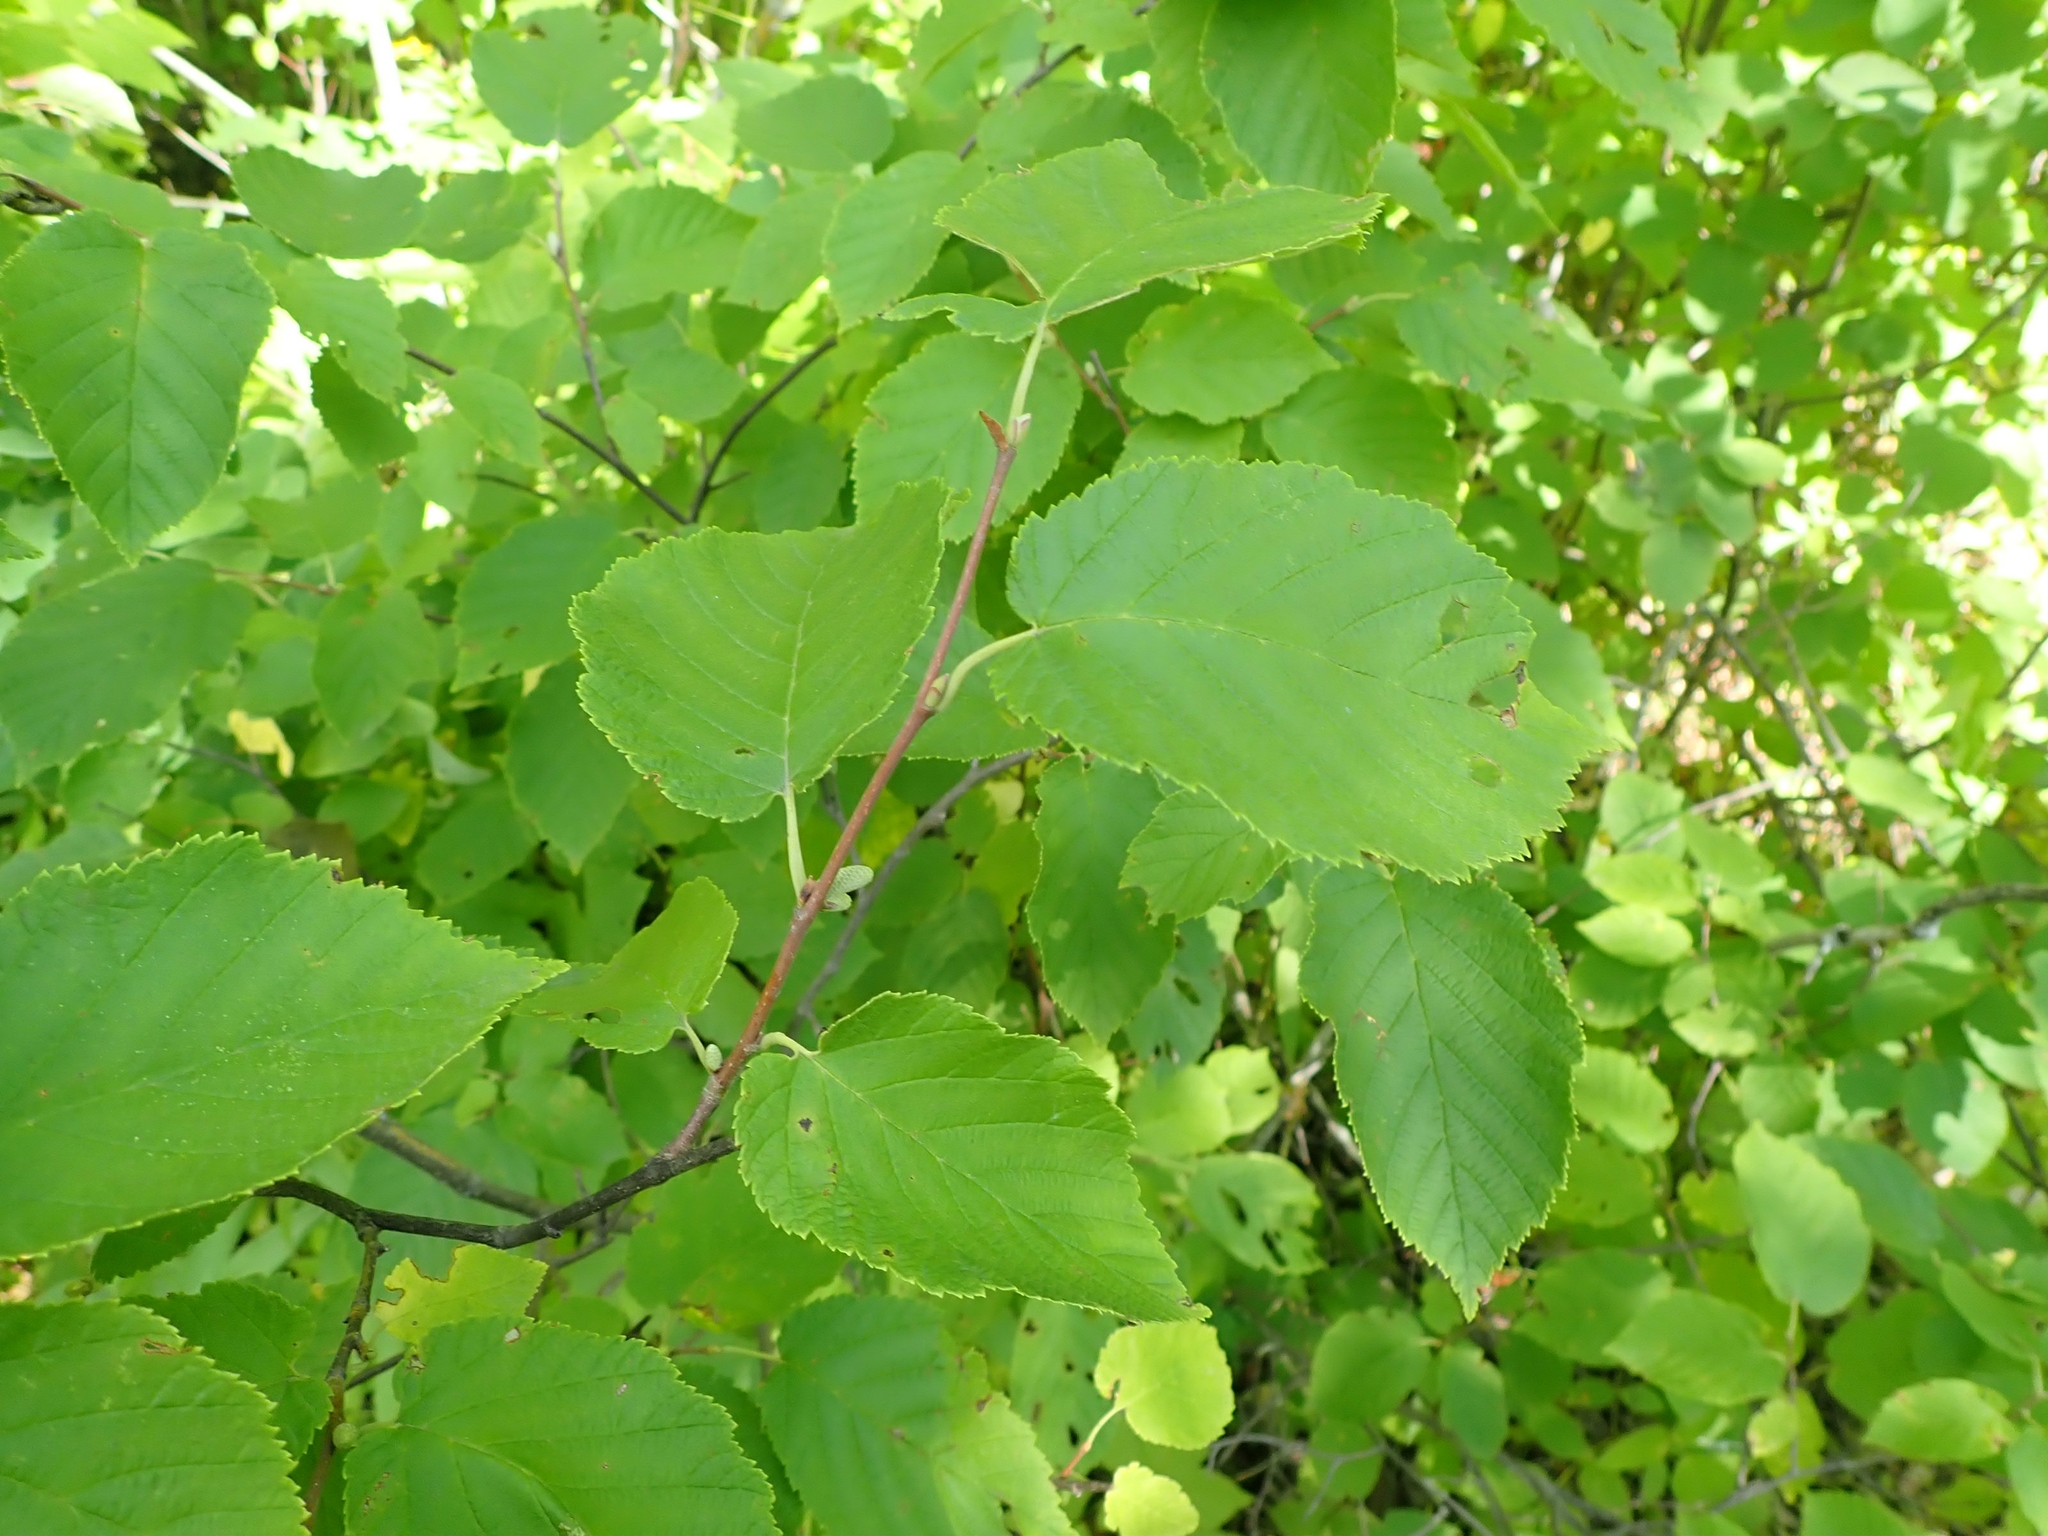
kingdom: Plantae
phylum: Tracheophyta
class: Magnoliopsida
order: Fagales
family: Betulaceae
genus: Corylus
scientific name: Corylus cornuta
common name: Beaked hazel
